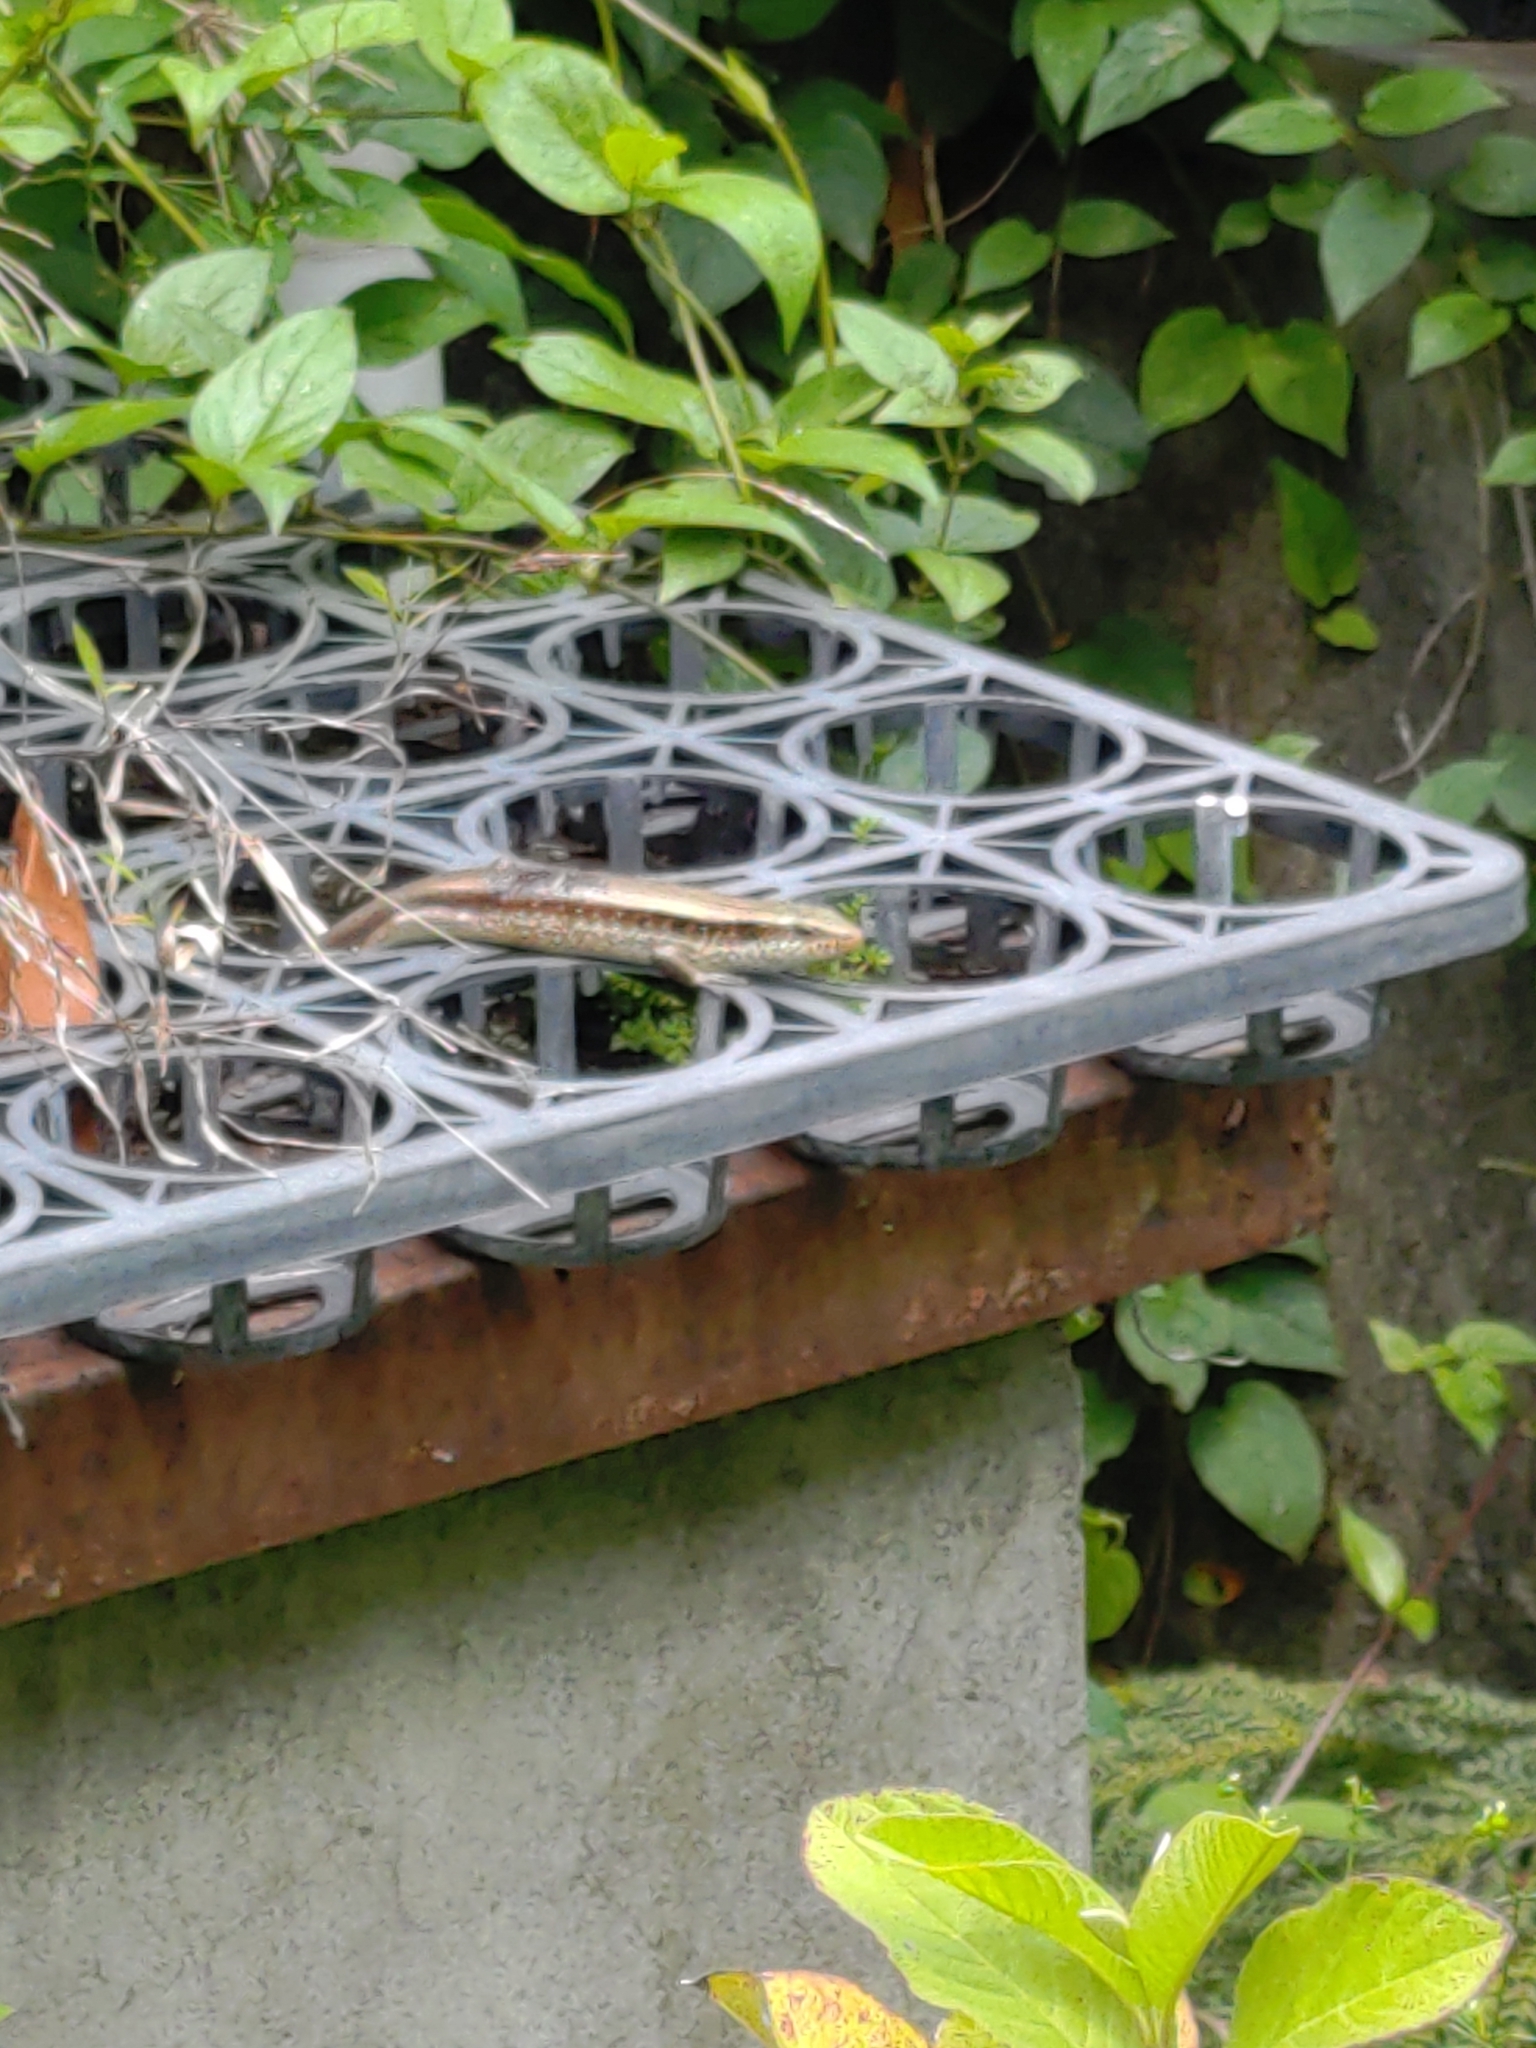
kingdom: Animalia
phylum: Chordata
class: Squamata
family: Scincidae
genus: Eutropis
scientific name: Eutropis longicaudata
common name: Long-tailed sun skink
